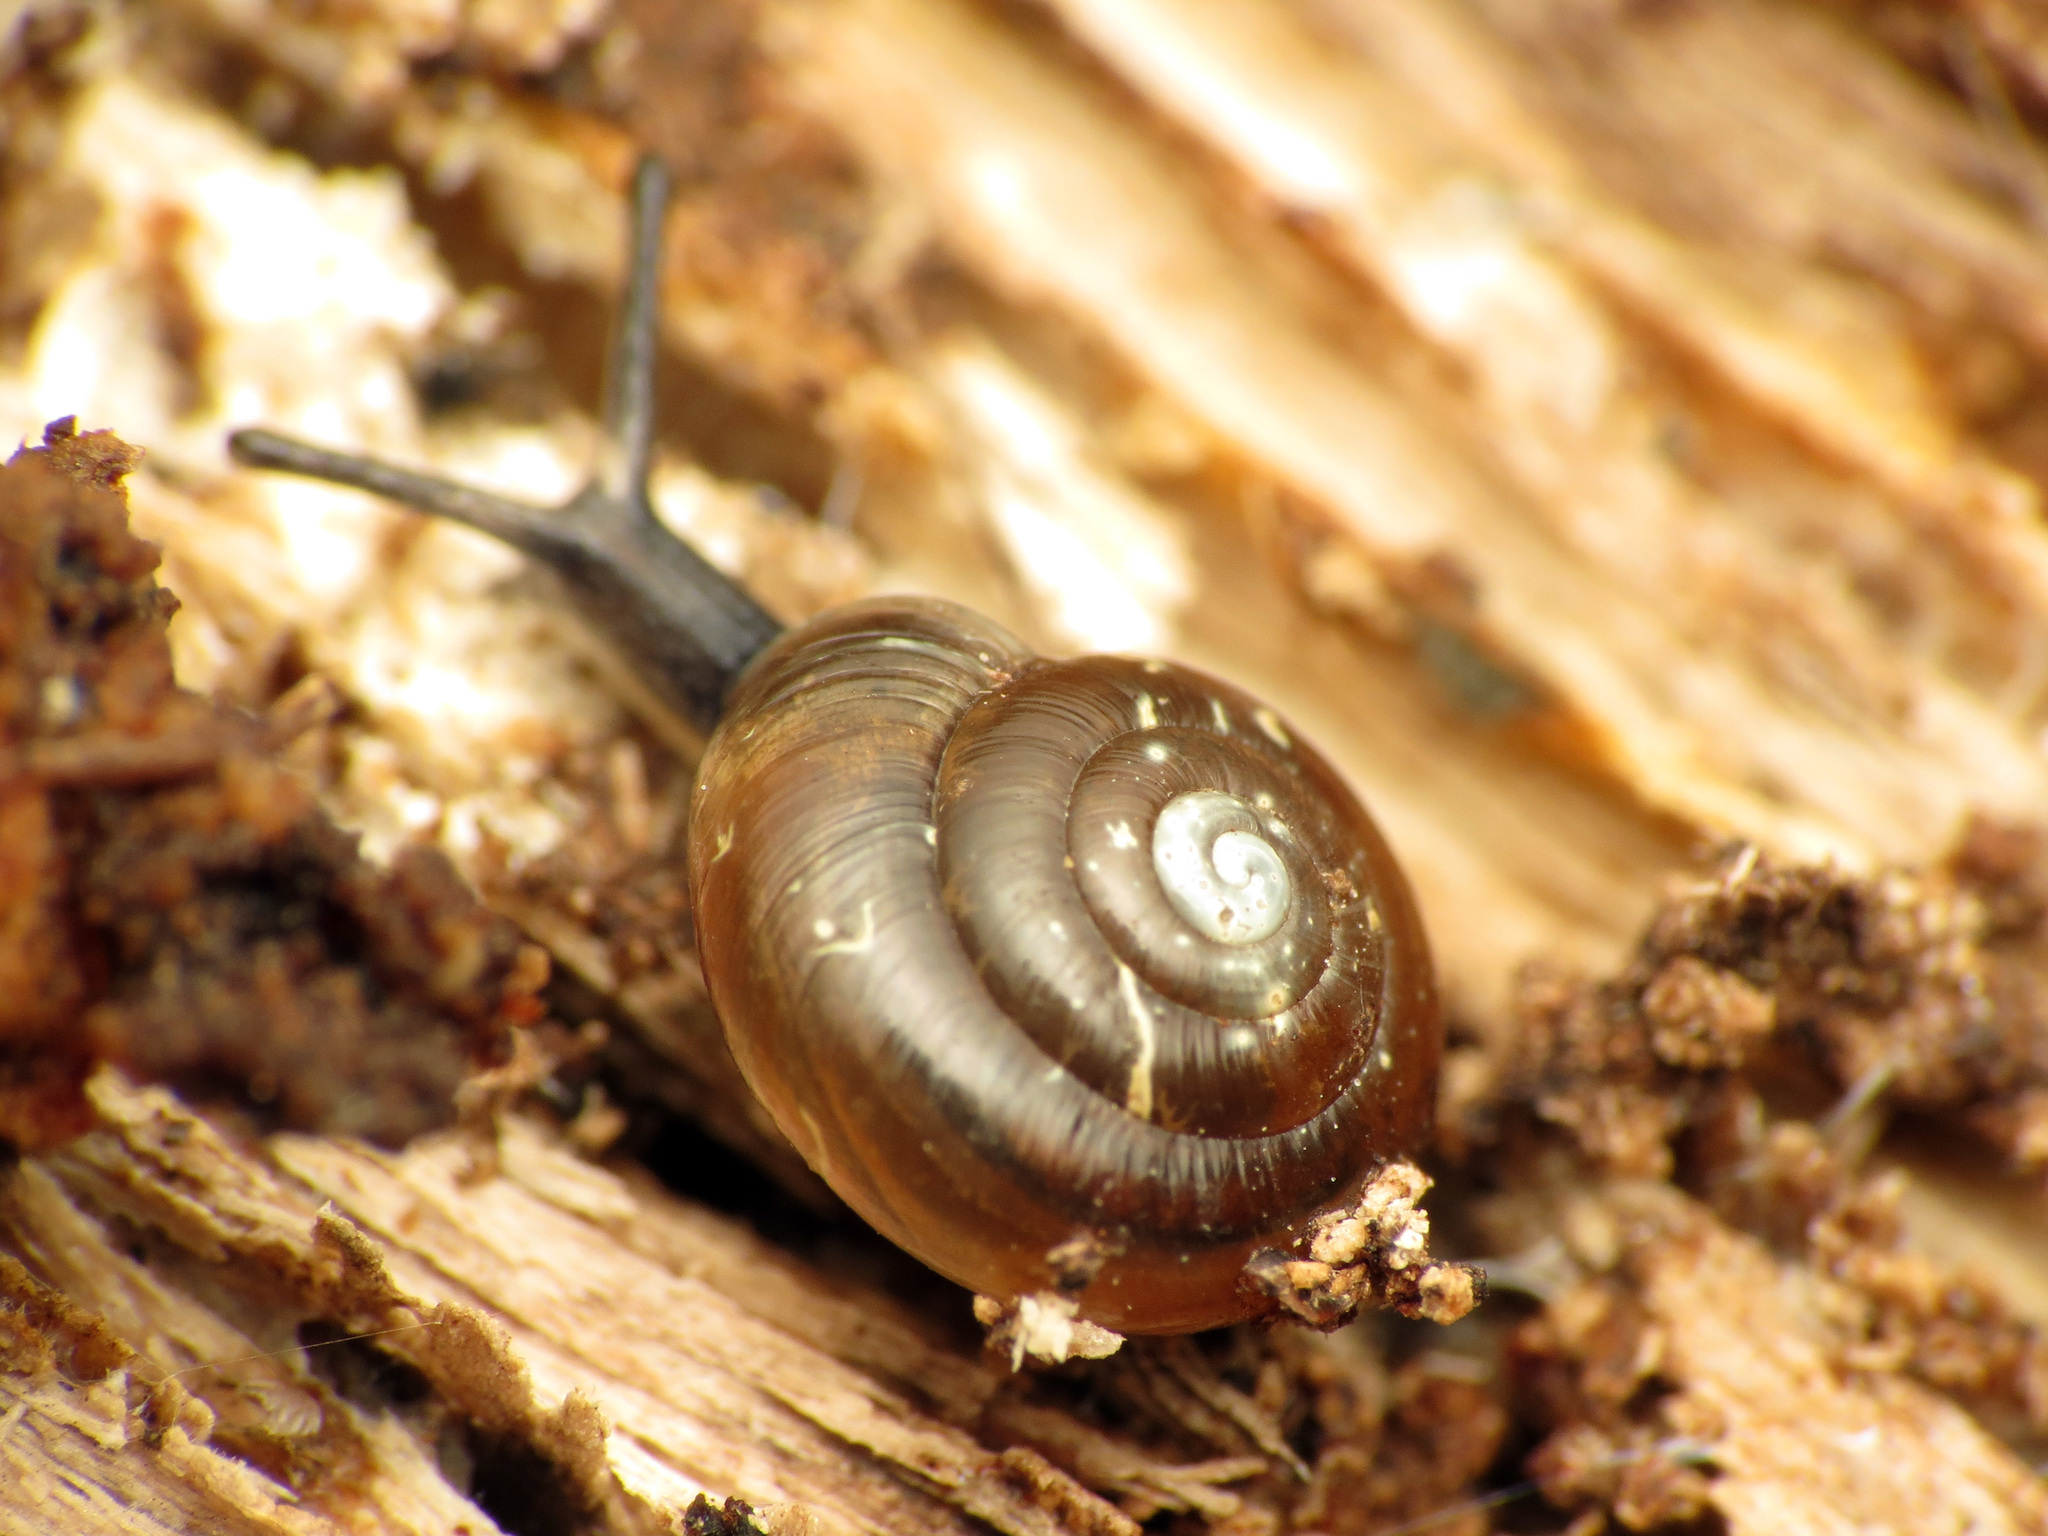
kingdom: Animalia
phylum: Mollusca
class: Gastropoda
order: Stylommatophora
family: Gastrodontidae
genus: Zonitoides
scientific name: Zonitoides arboreus
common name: Quick gloss
